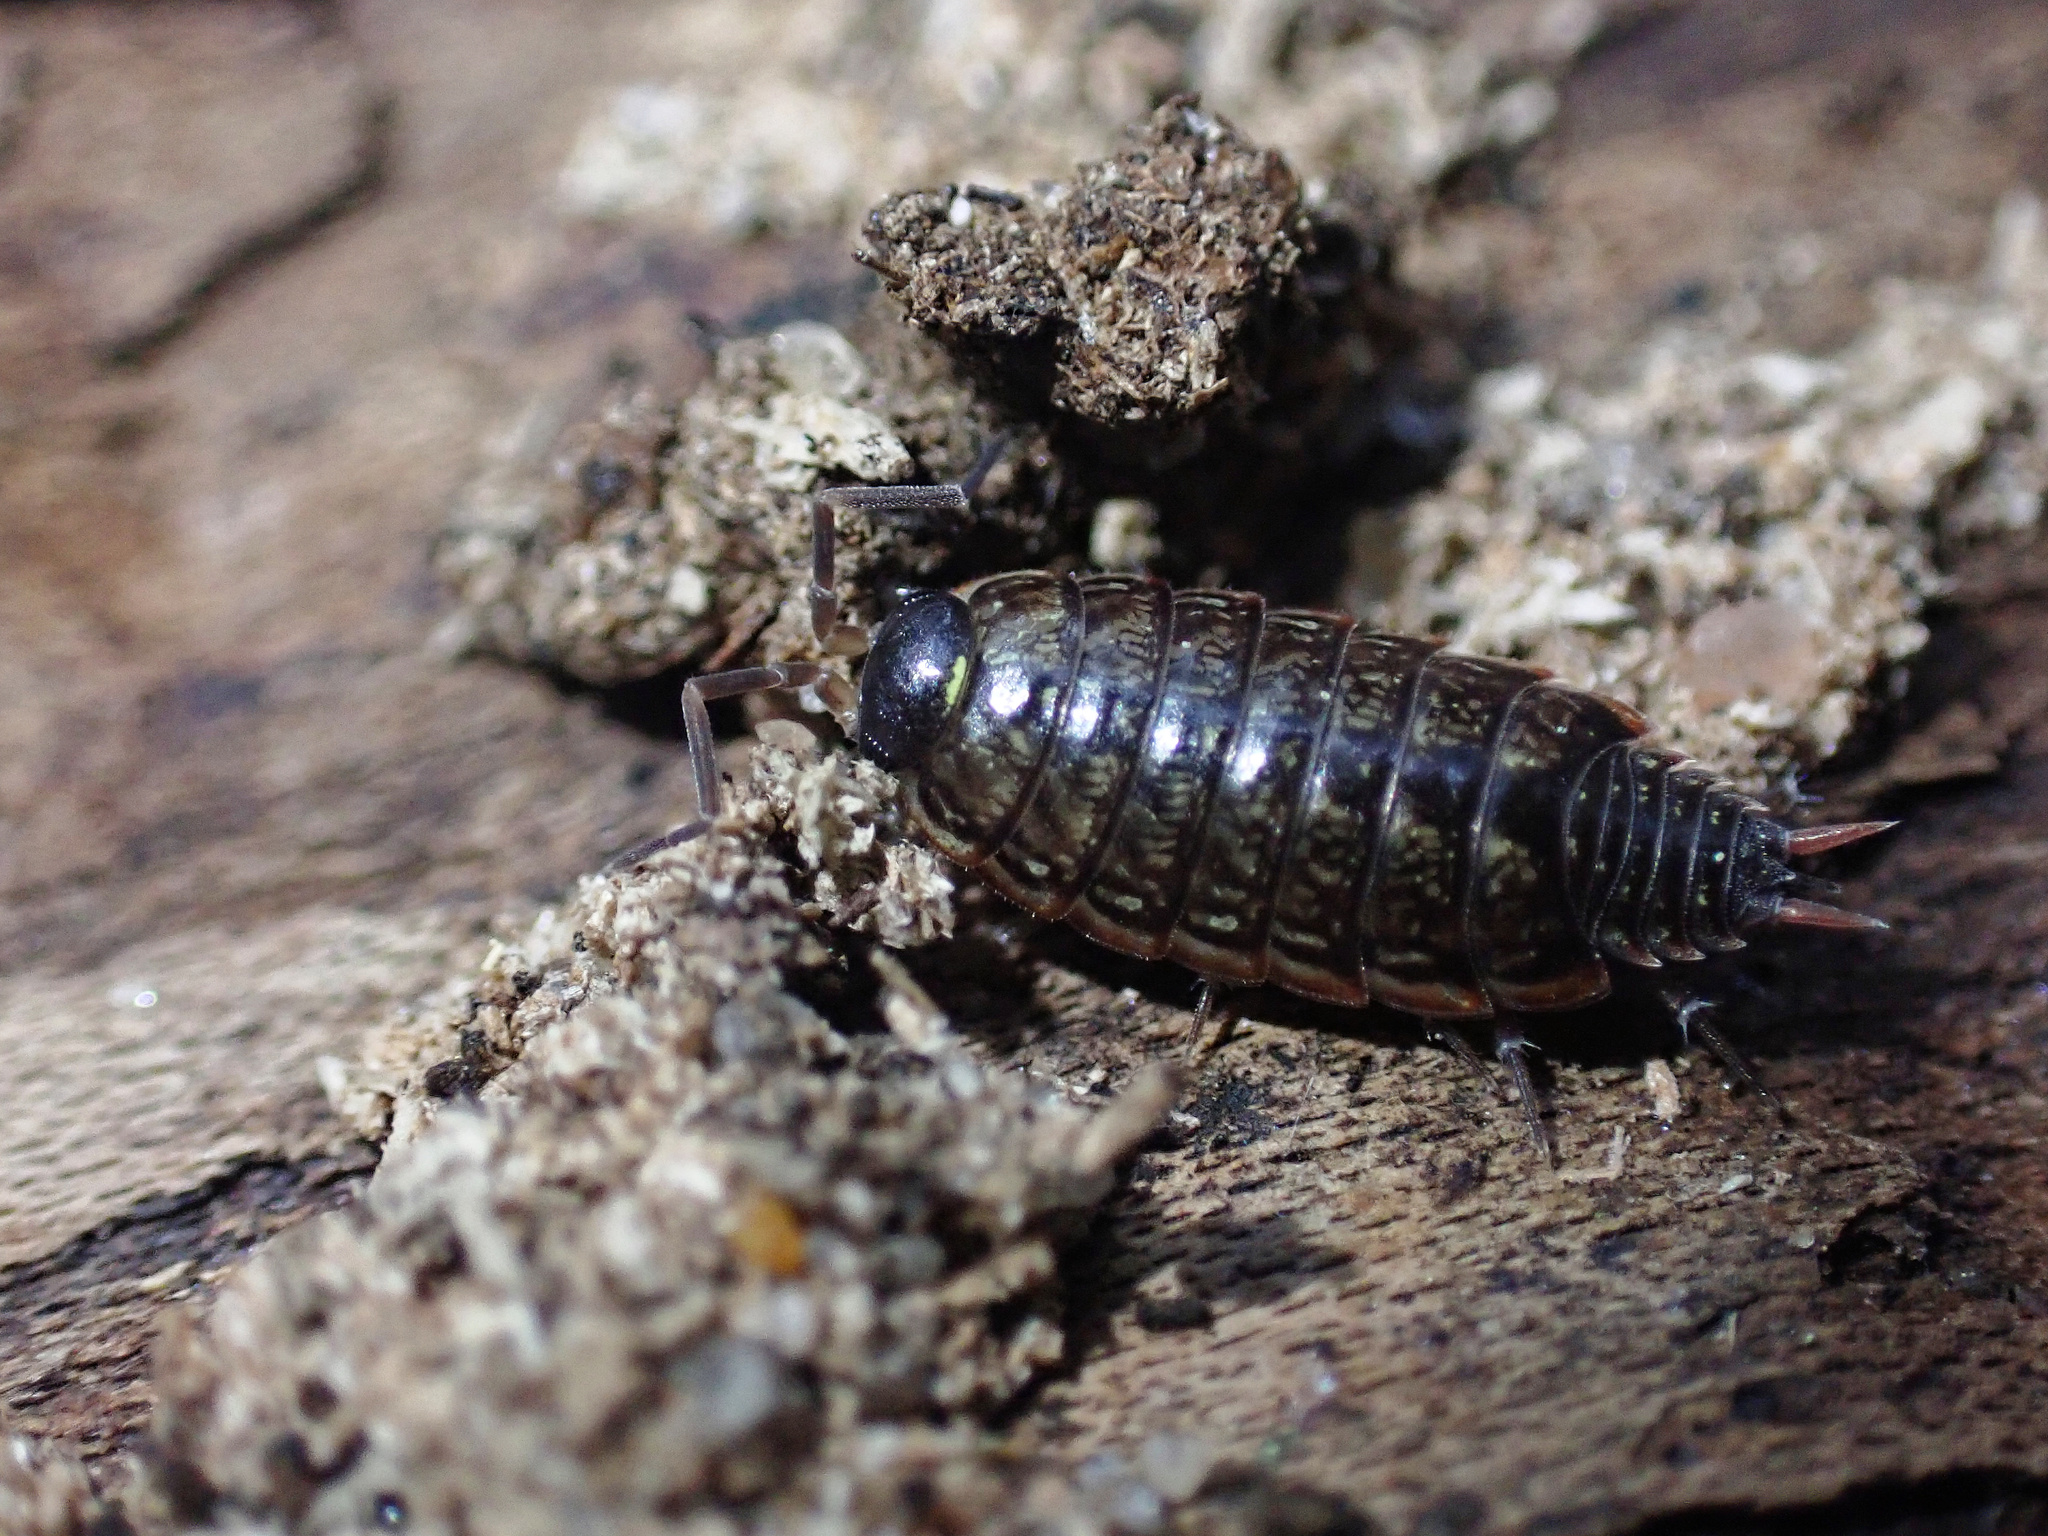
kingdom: Animalia
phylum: Arthropoda
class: Malacostraca
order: Isopoda
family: Philosciidae
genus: Philoscia
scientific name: Philoscia muscorum
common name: Common striped woodlouse
